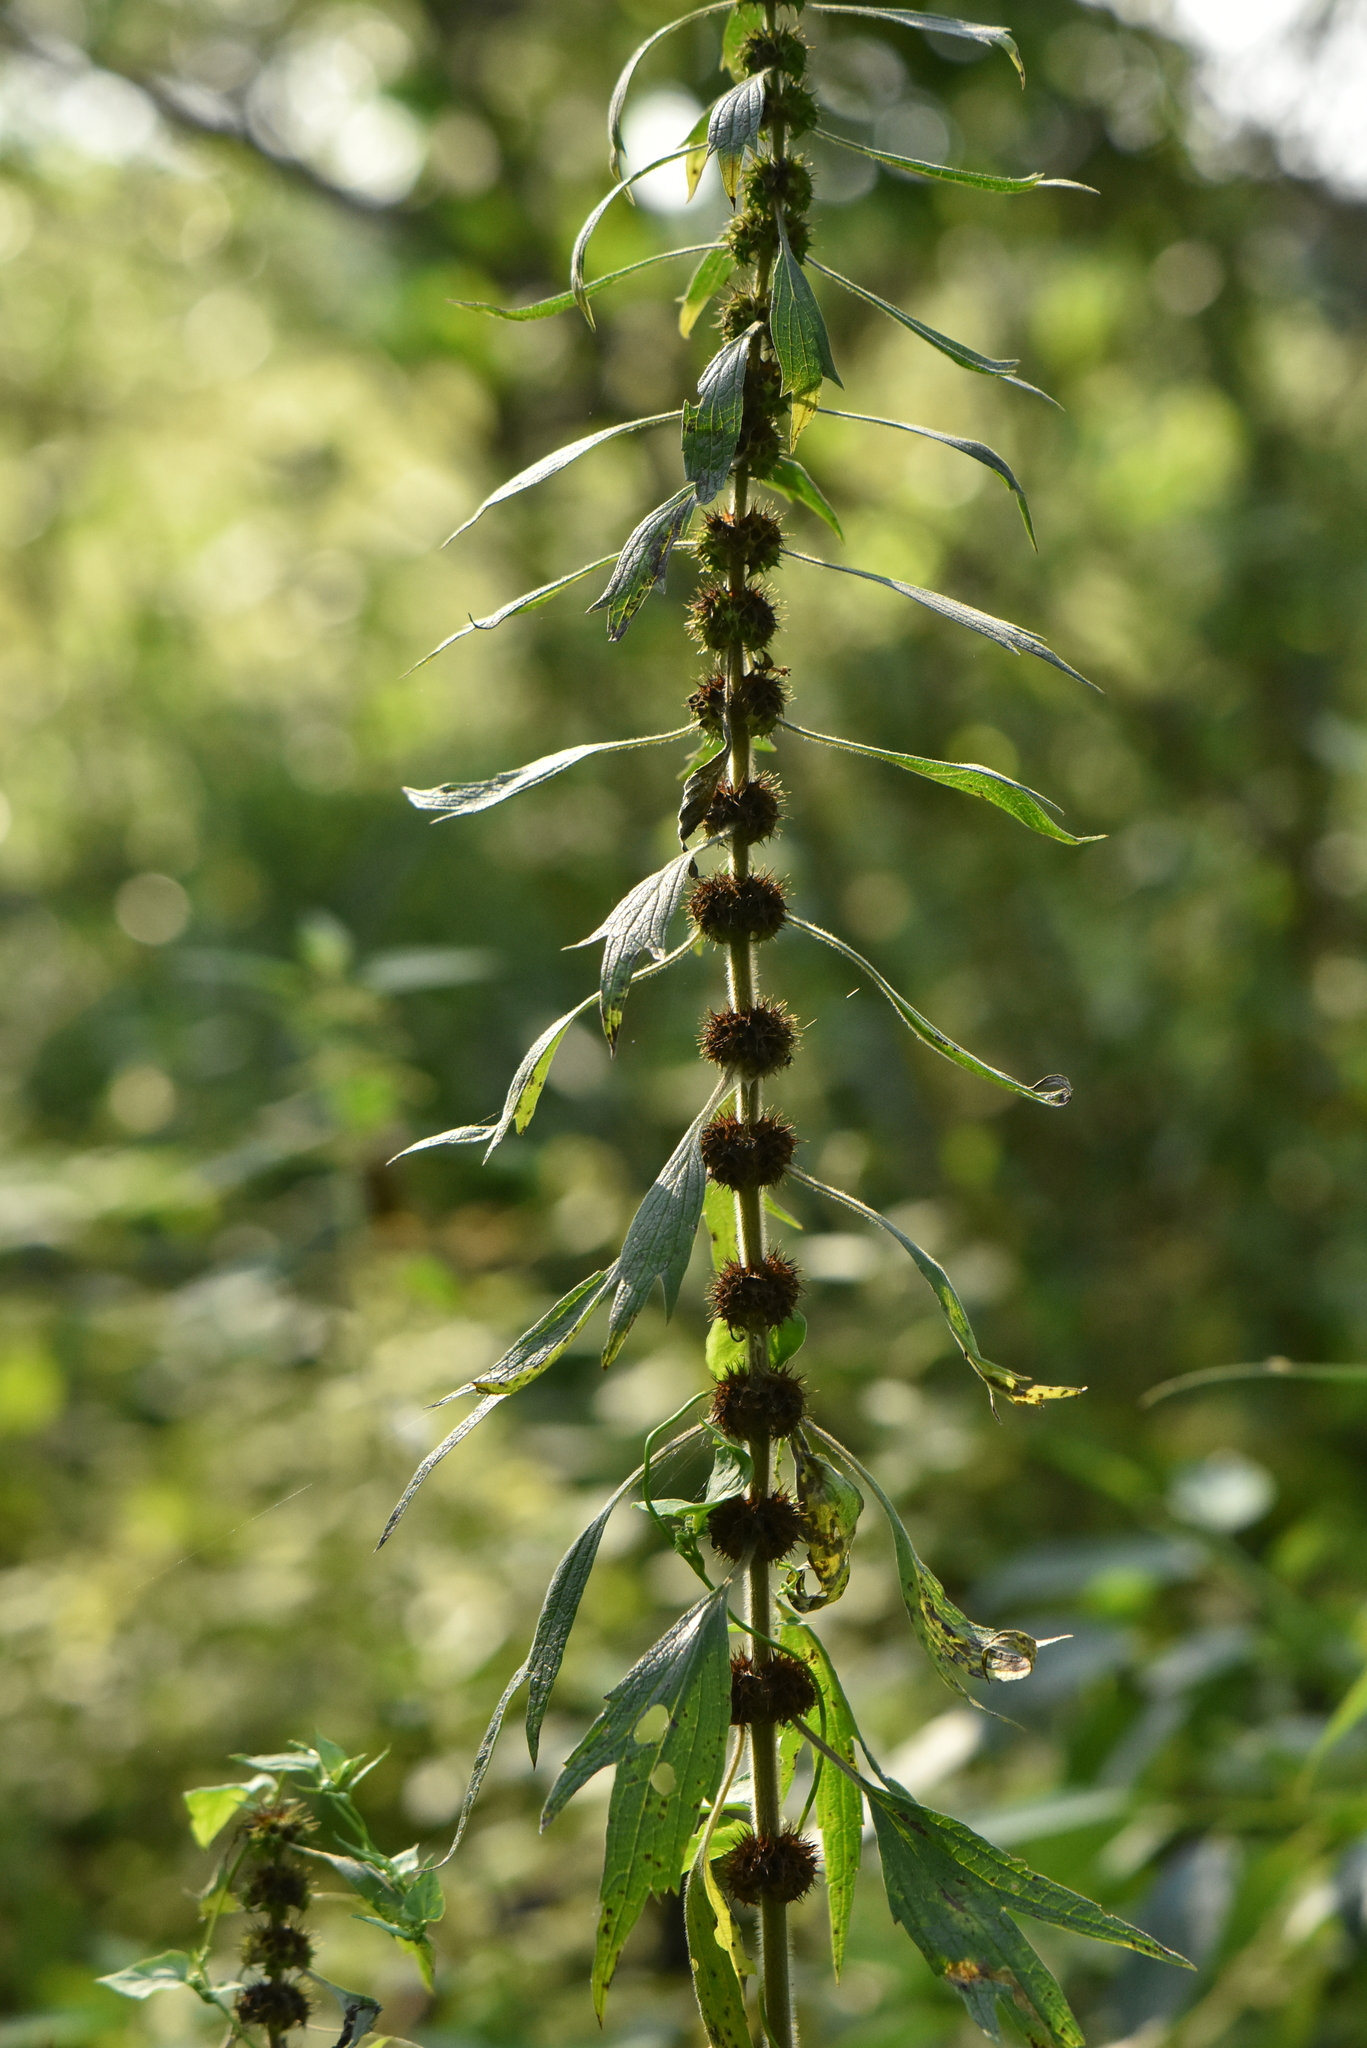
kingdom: Plantae
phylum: Tracheophyta
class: Magnoliopsida
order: Lamiales
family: Lamiaceae
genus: Leonurus
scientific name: Leonurus quinquelobatus
